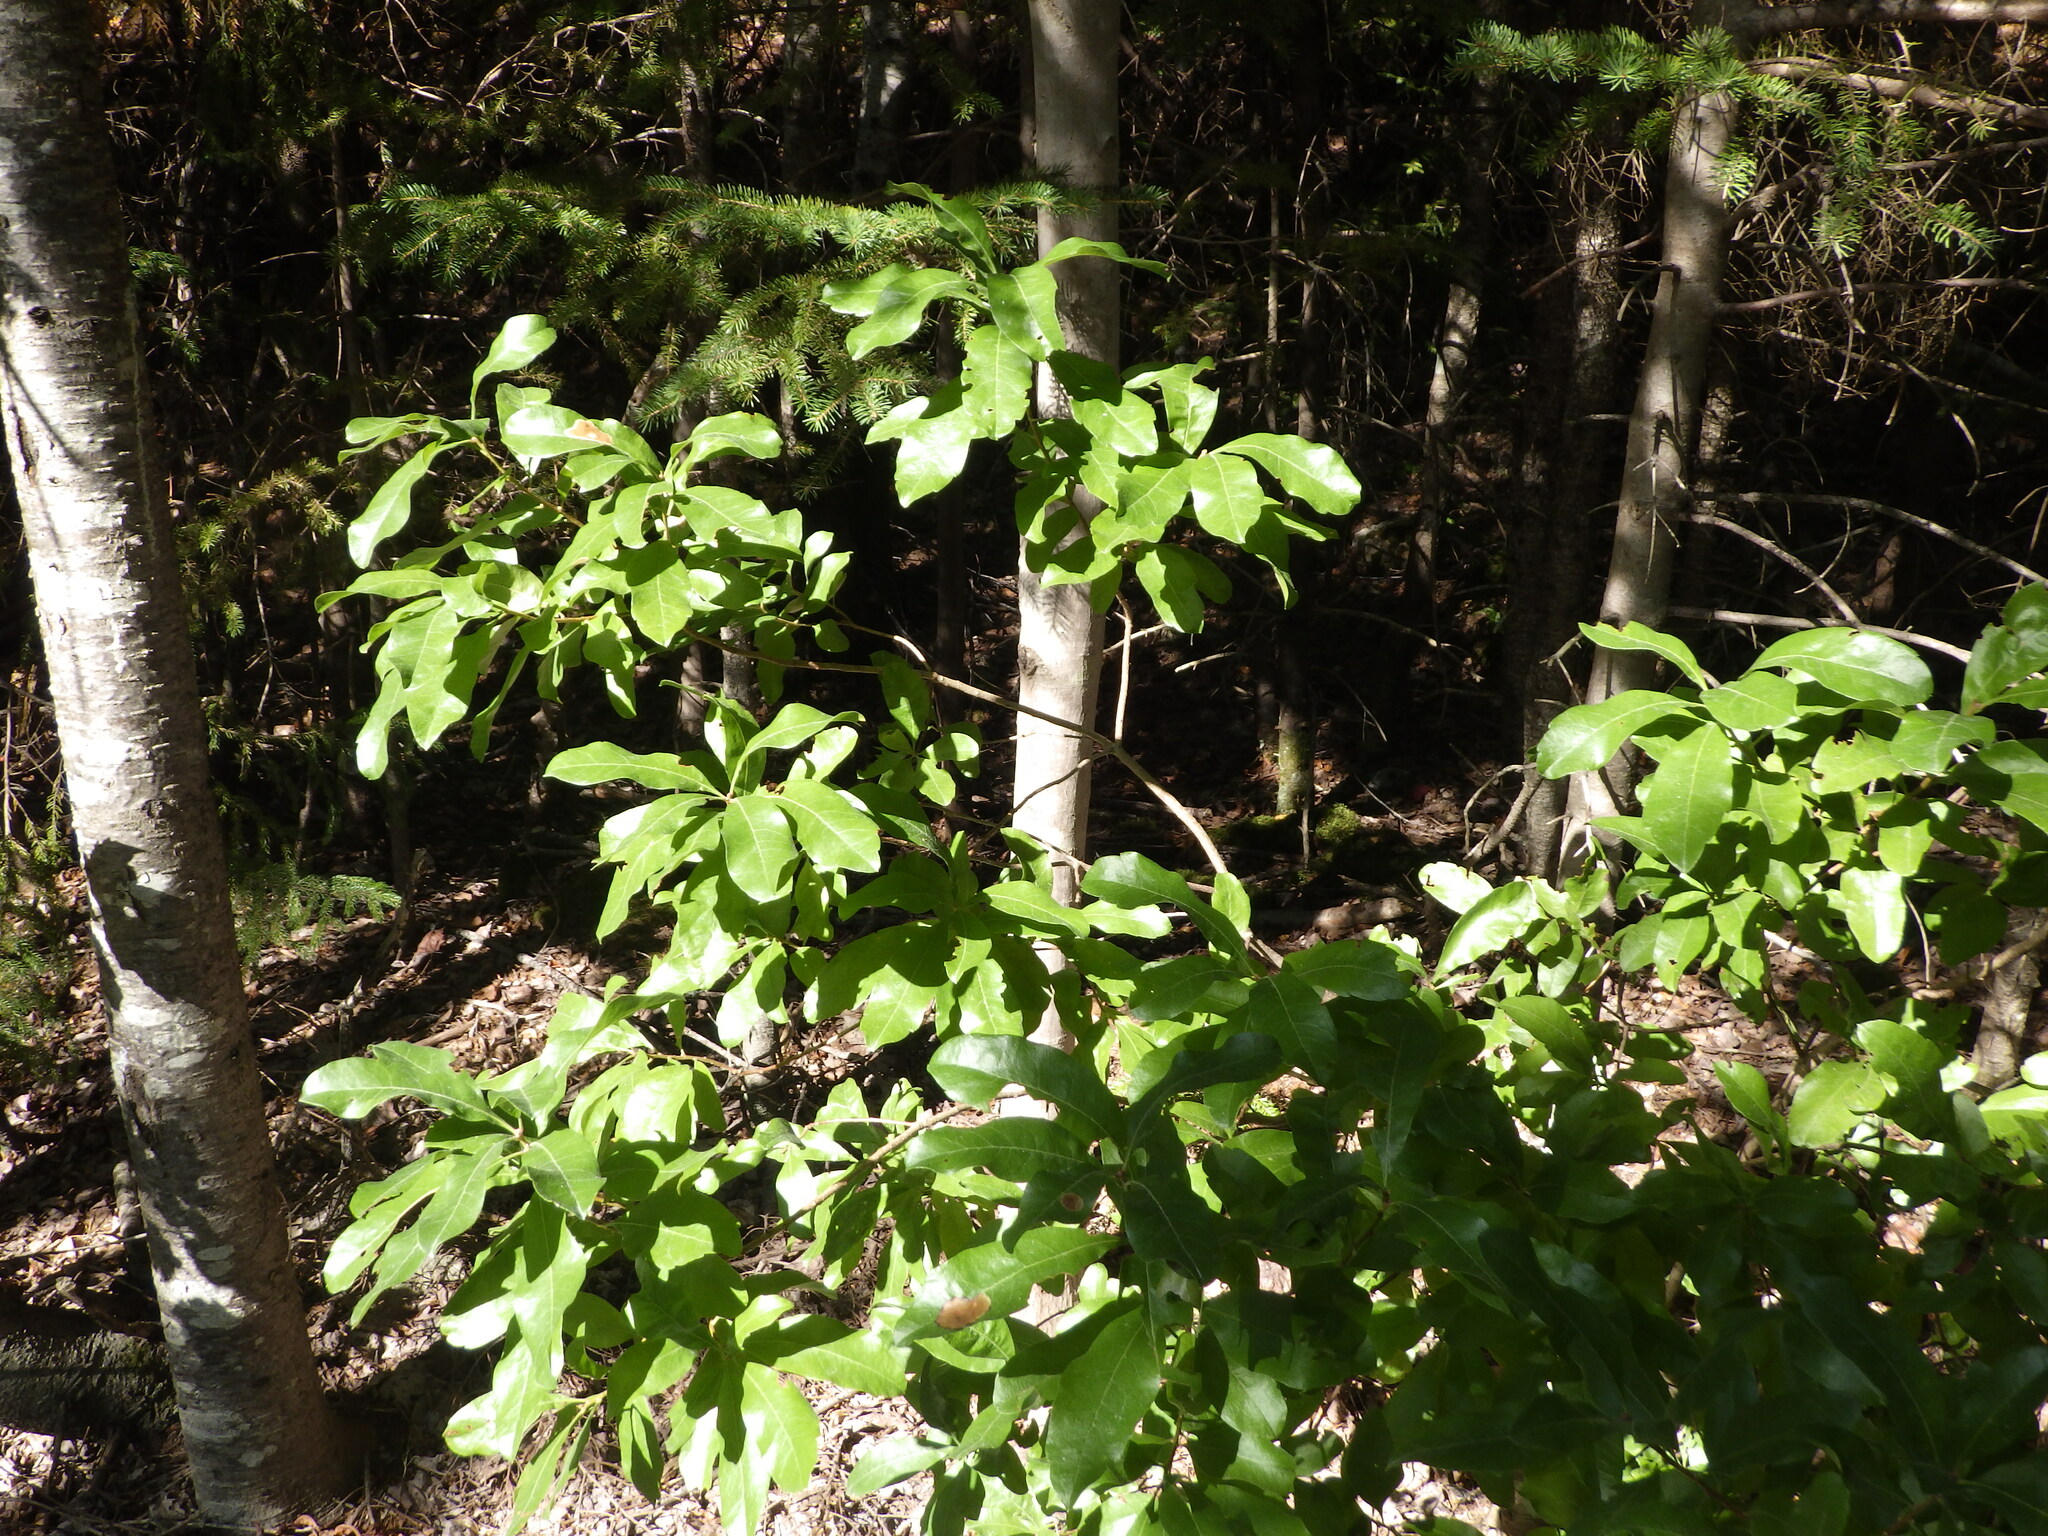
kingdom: Plantae
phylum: Tracheophyta
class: Magnoliopsida
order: Fagales
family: Myricaceae
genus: Morella
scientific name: Morella pensylvanica
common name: Northern bayberry
